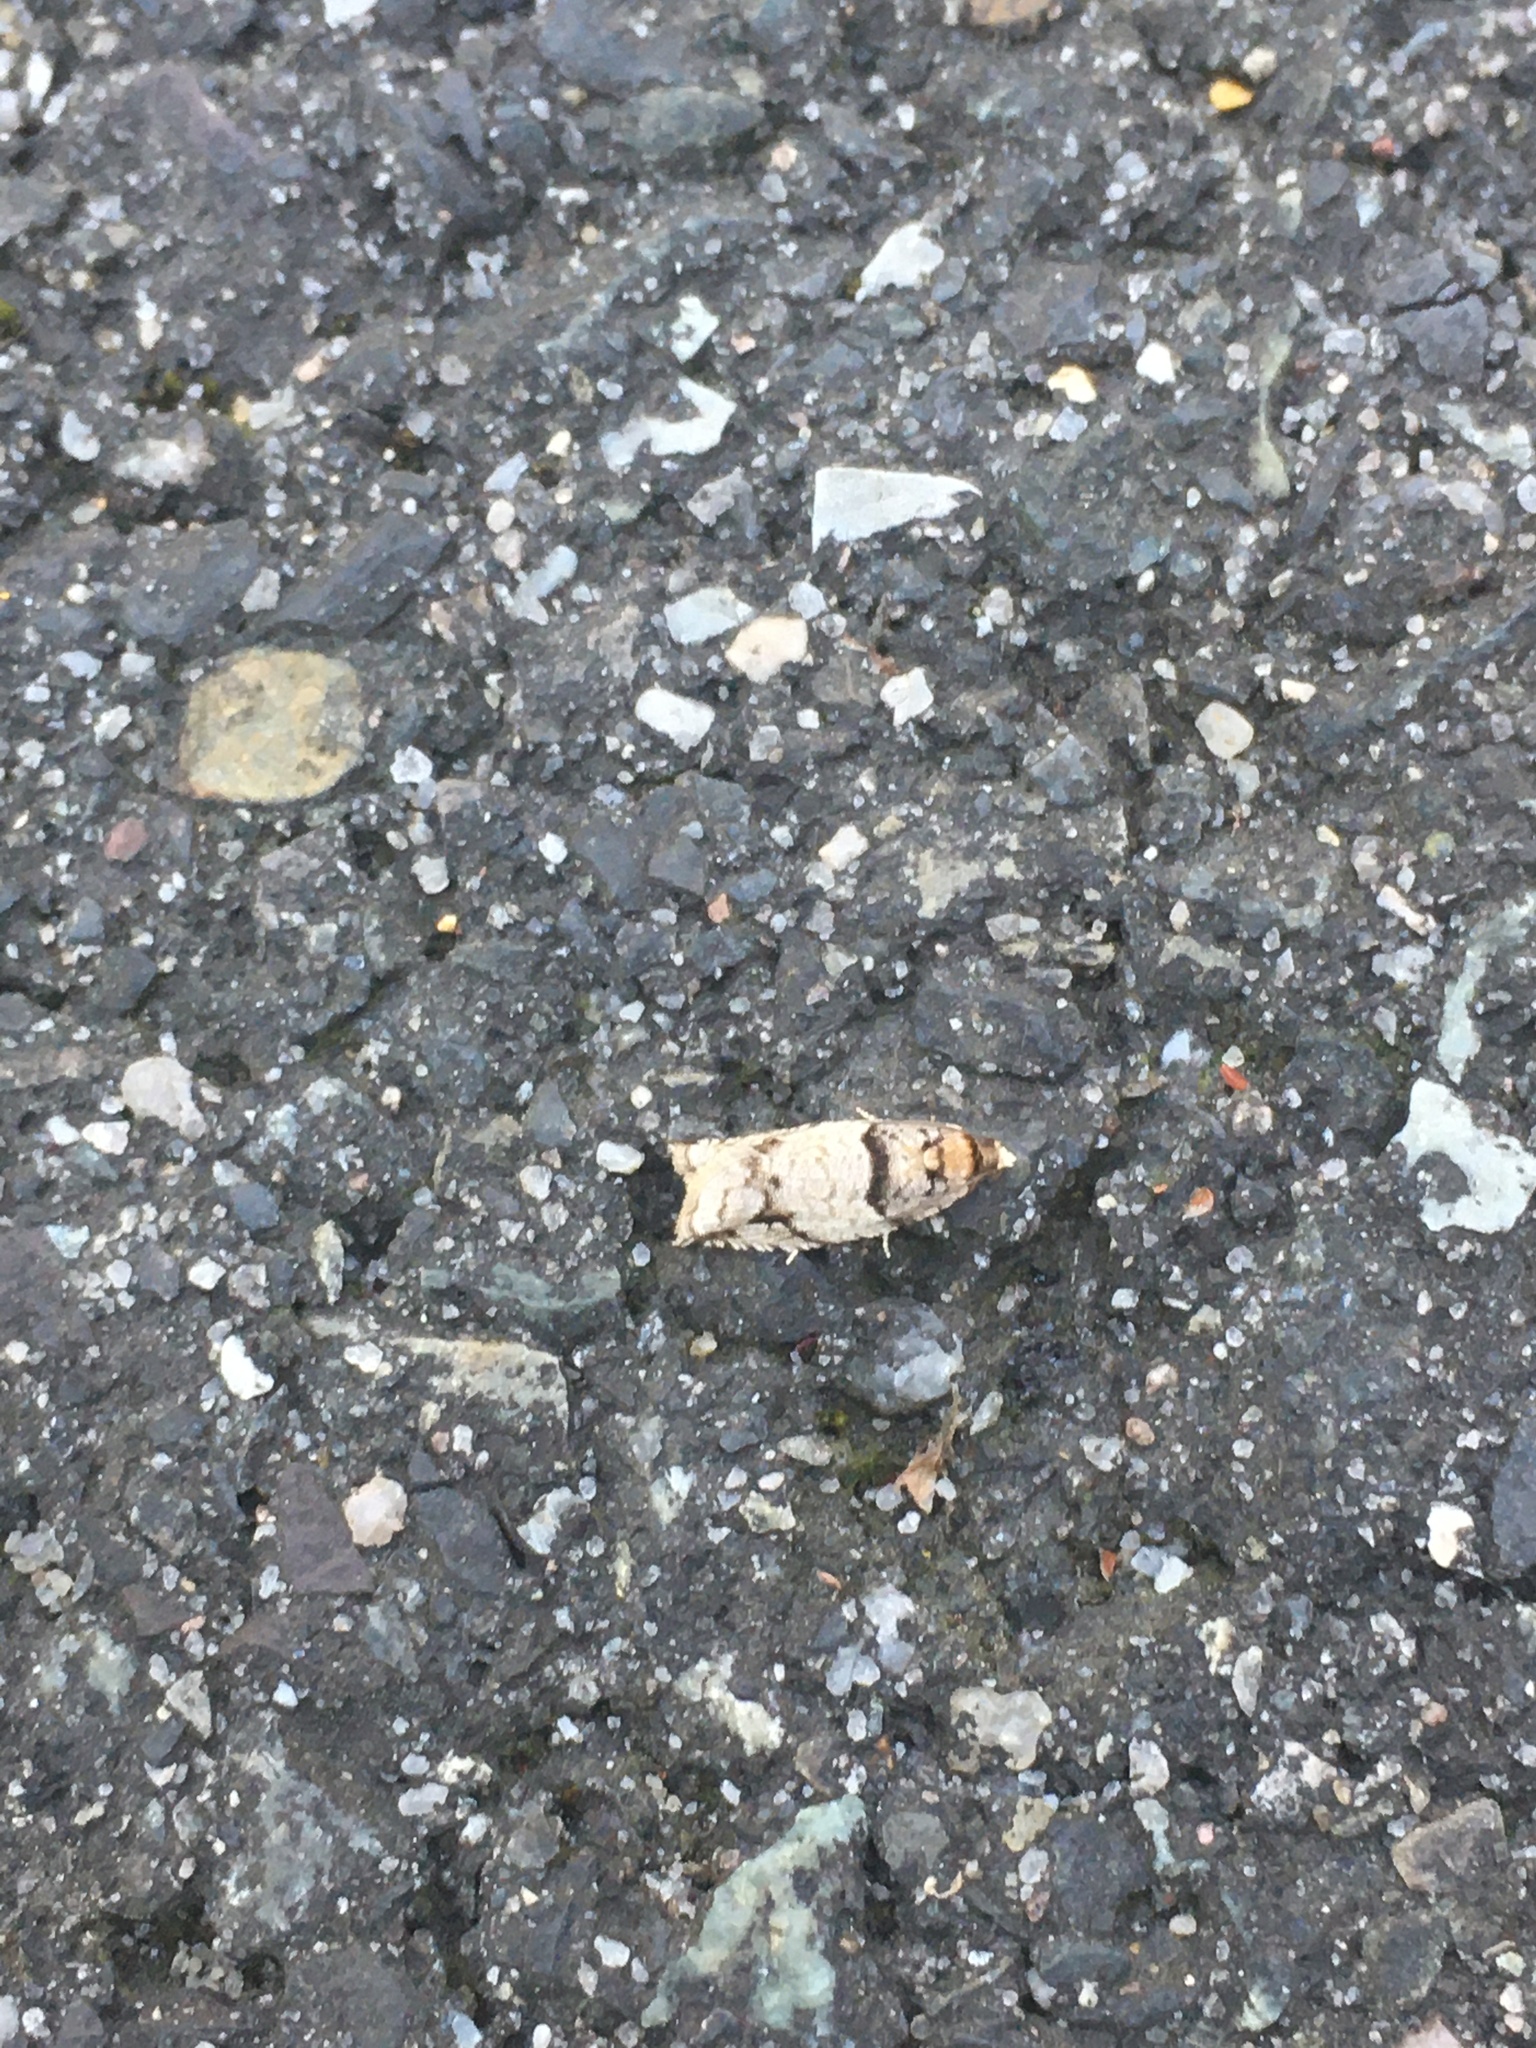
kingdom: Animalia
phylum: Arthropoda
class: Insecta
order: Lepidoptera
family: Tortricidae
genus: Rhopobota
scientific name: Rhopobota dietziana
